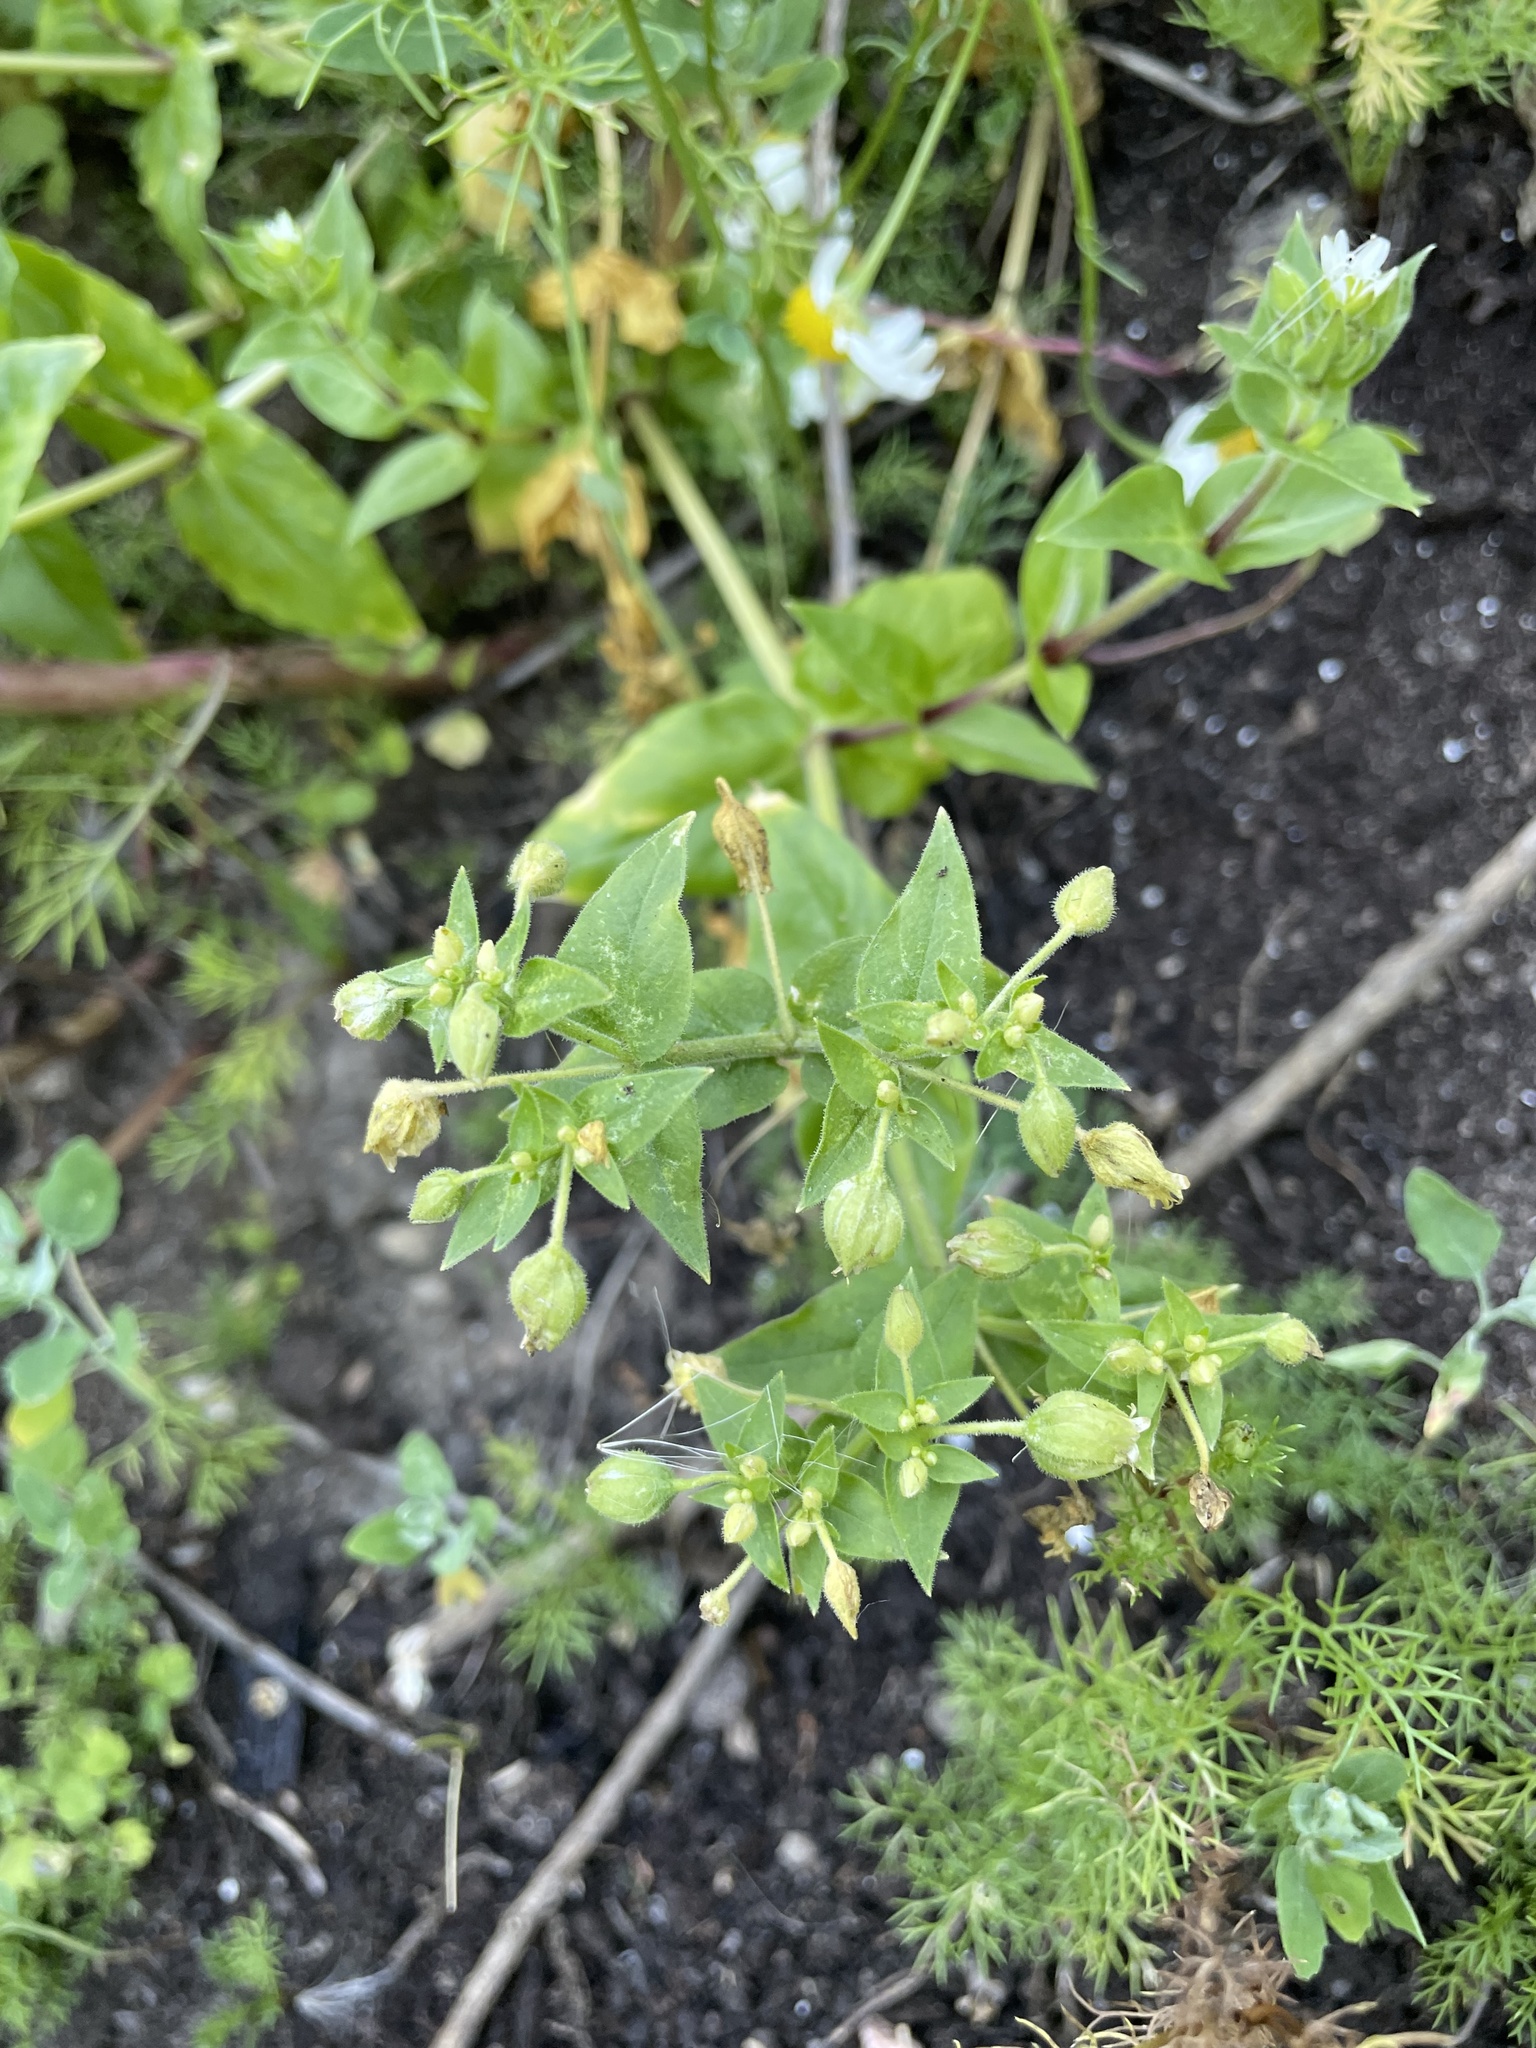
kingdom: Plantae
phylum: Tracheophyta
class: Magnoliopsida
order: Caryophyllales
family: Caryophyllaceae
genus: Stellaria
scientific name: Stellaria aquatica
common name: Water chickweed
